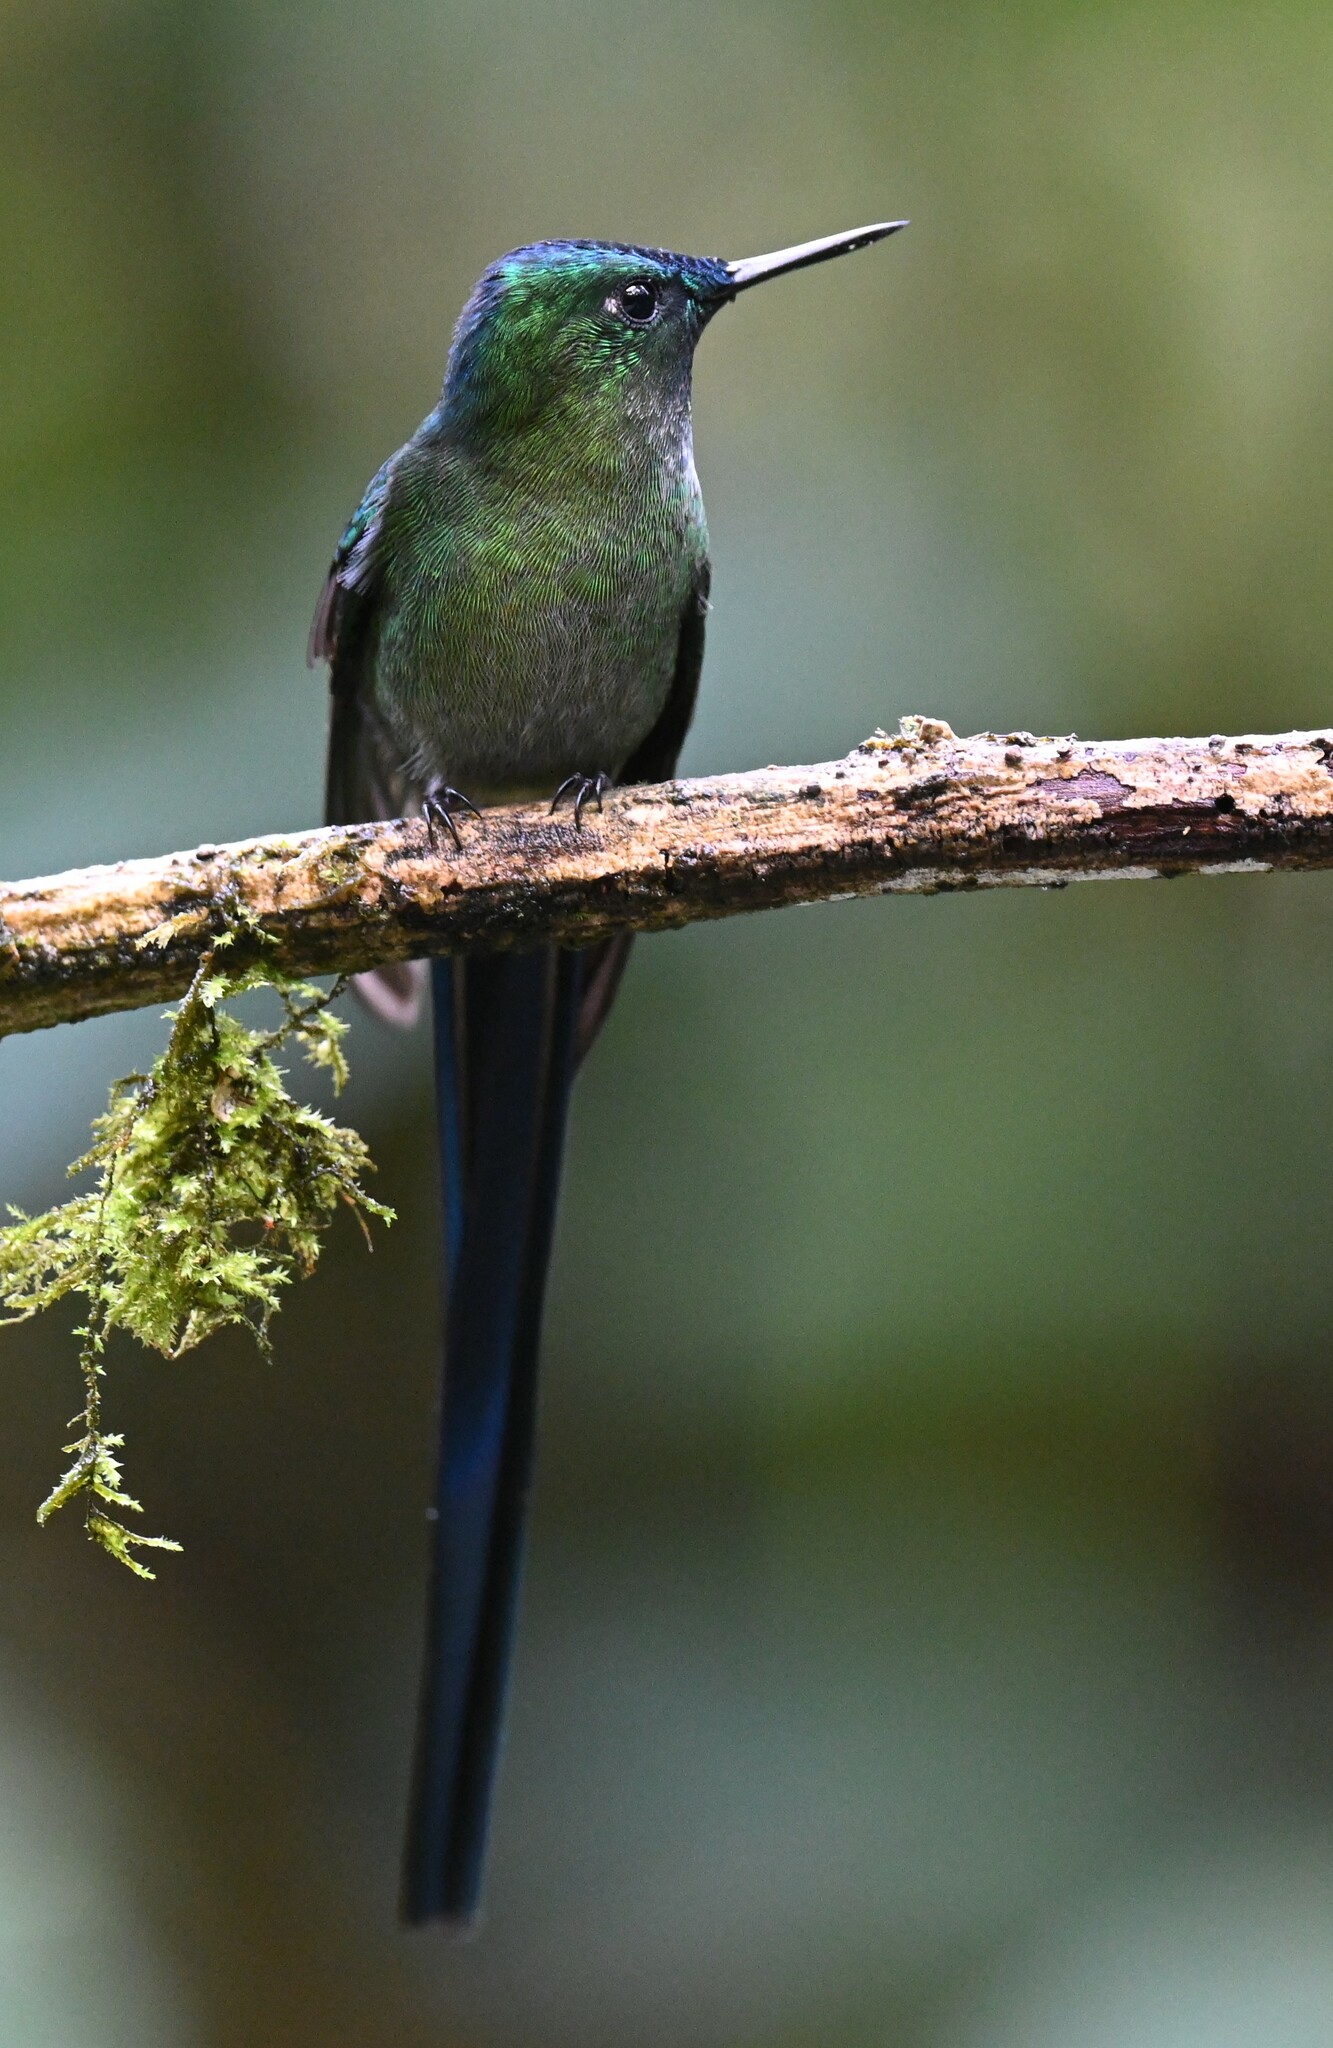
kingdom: Animalia
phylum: Chordata
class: Aves
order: Apodiformes
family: Trochilidae
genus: Aglaiocercus
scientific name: Aglaiocercus kingii
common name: Long-tailed sylph
